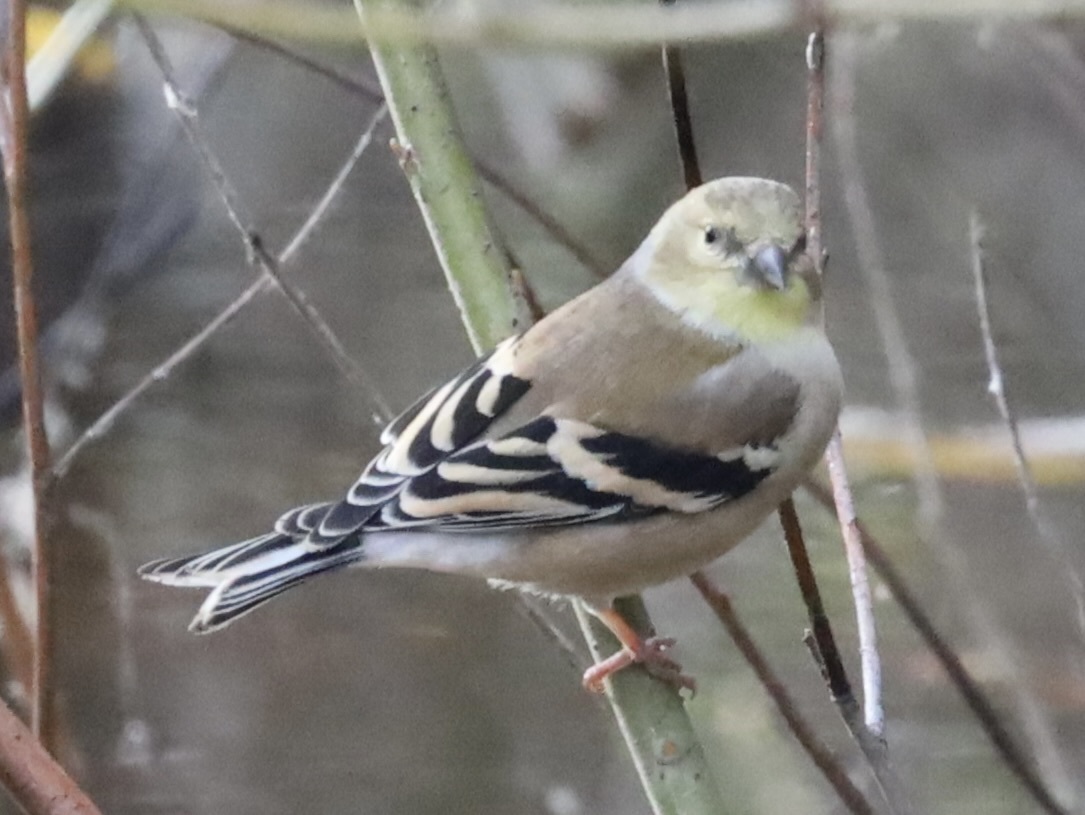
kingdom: Animalia
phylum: Chordata
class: Aves
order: Passeriformes
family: Fringillidae
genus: Spinus
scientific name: Spinus tristis
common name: American goldfinch
